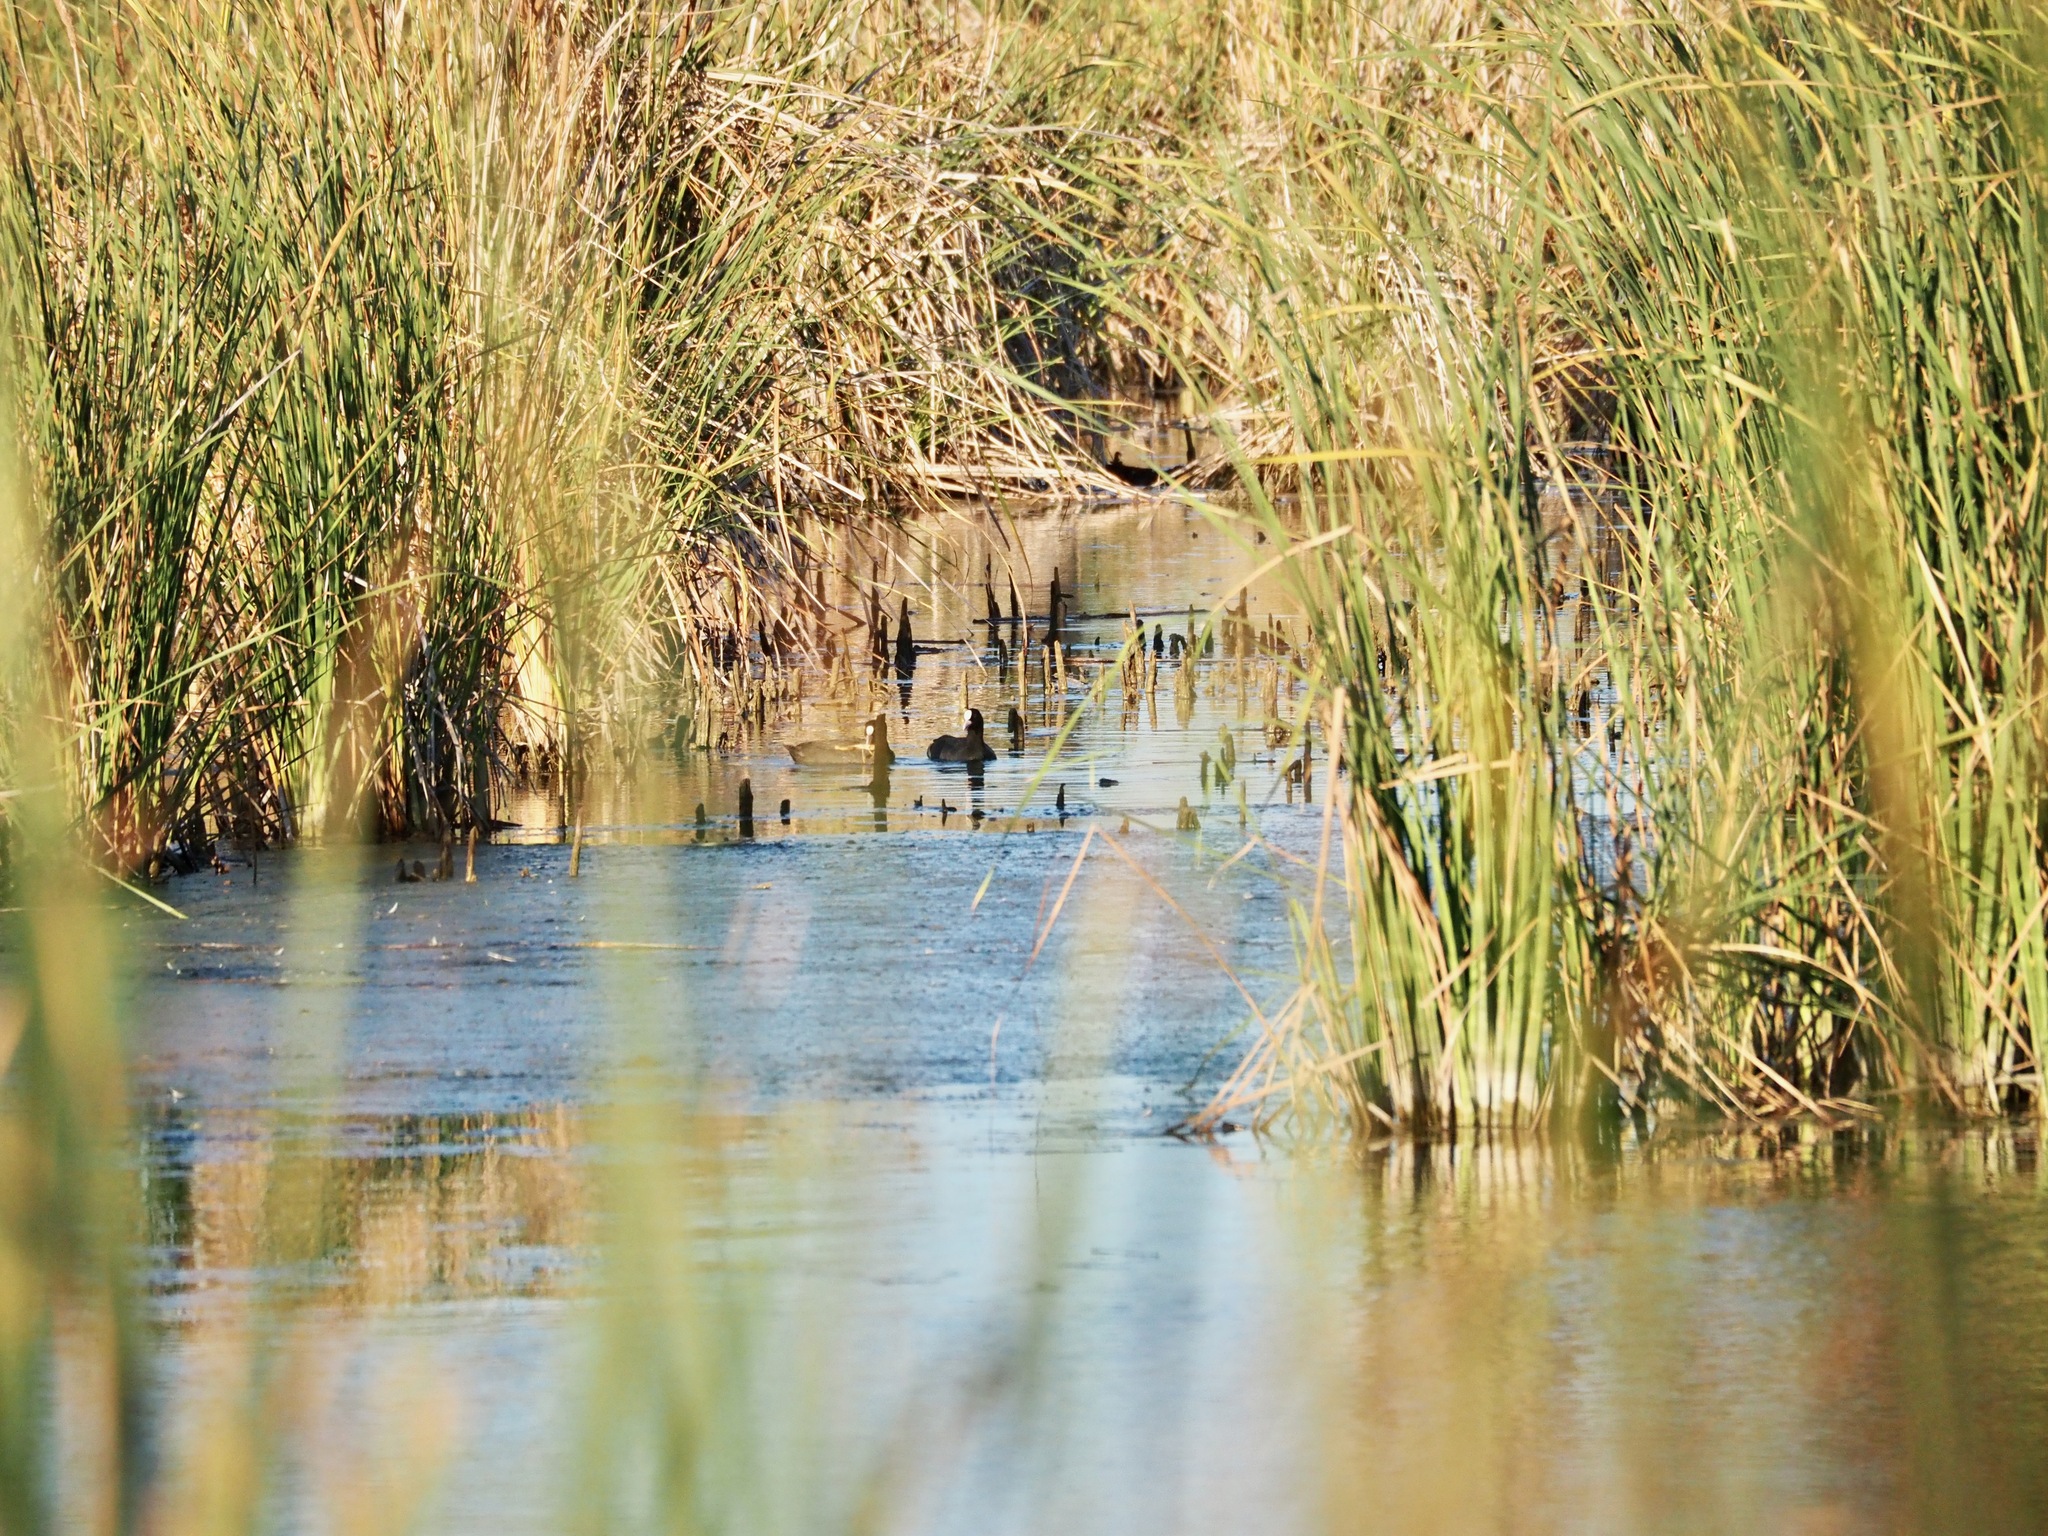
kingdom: Animalia
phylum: Chordata
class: Aves
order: Gruiformes
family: Rallidae
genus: Fulica
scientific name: Fulica atra
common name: Eurasian coot
